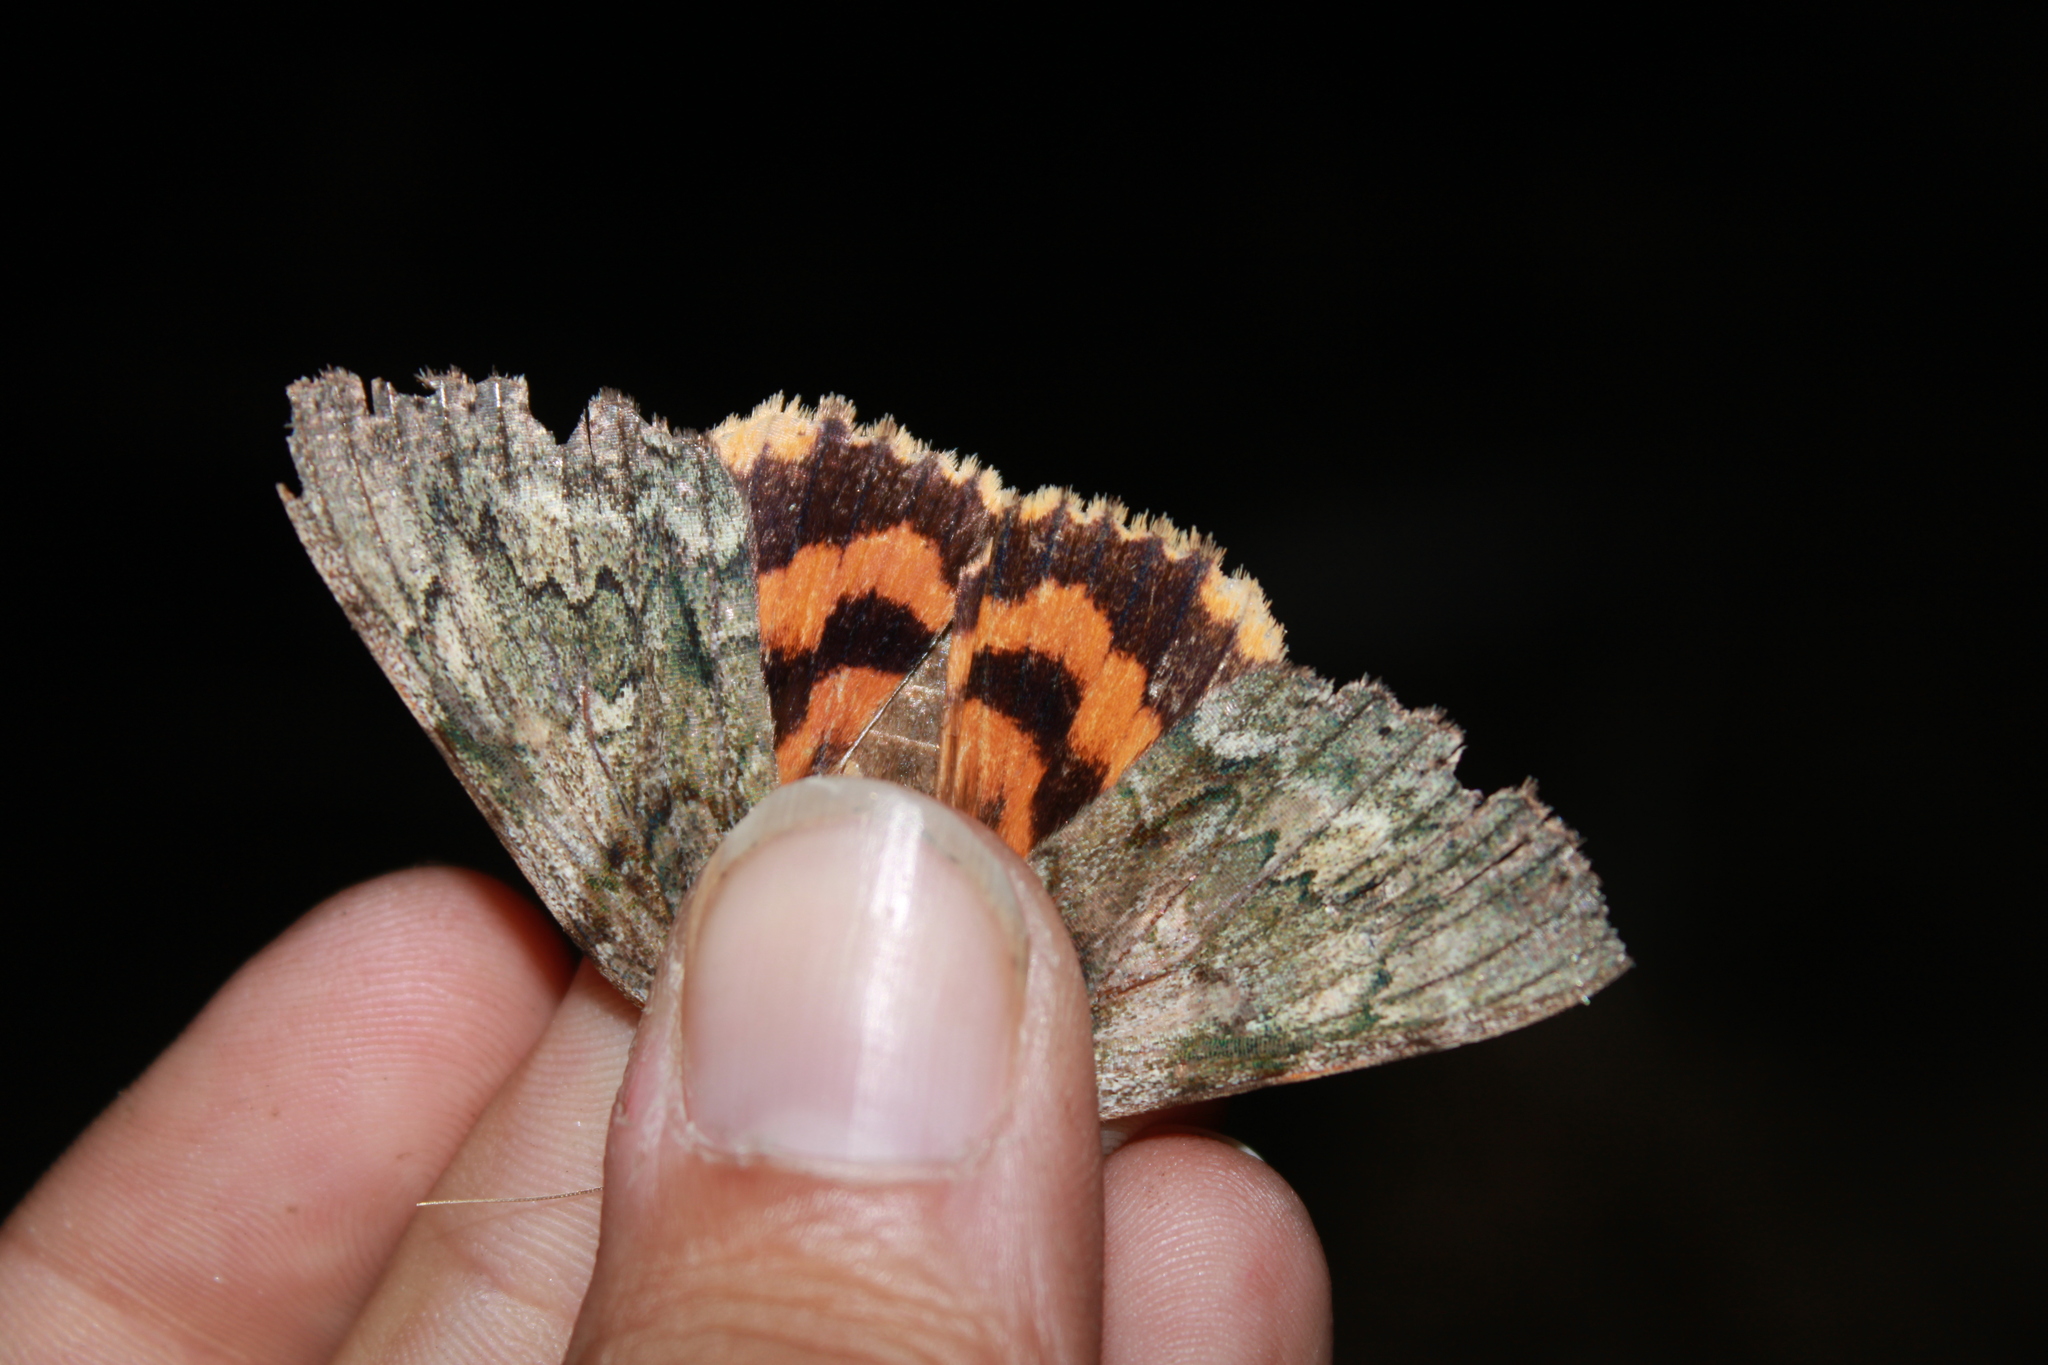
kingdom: Animalia
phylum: Arthropoda
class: Insecta
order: Lepidoptera
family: Erebidae
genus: Catocala
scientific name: Catocala palaeogama
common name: Oldwife underwing
